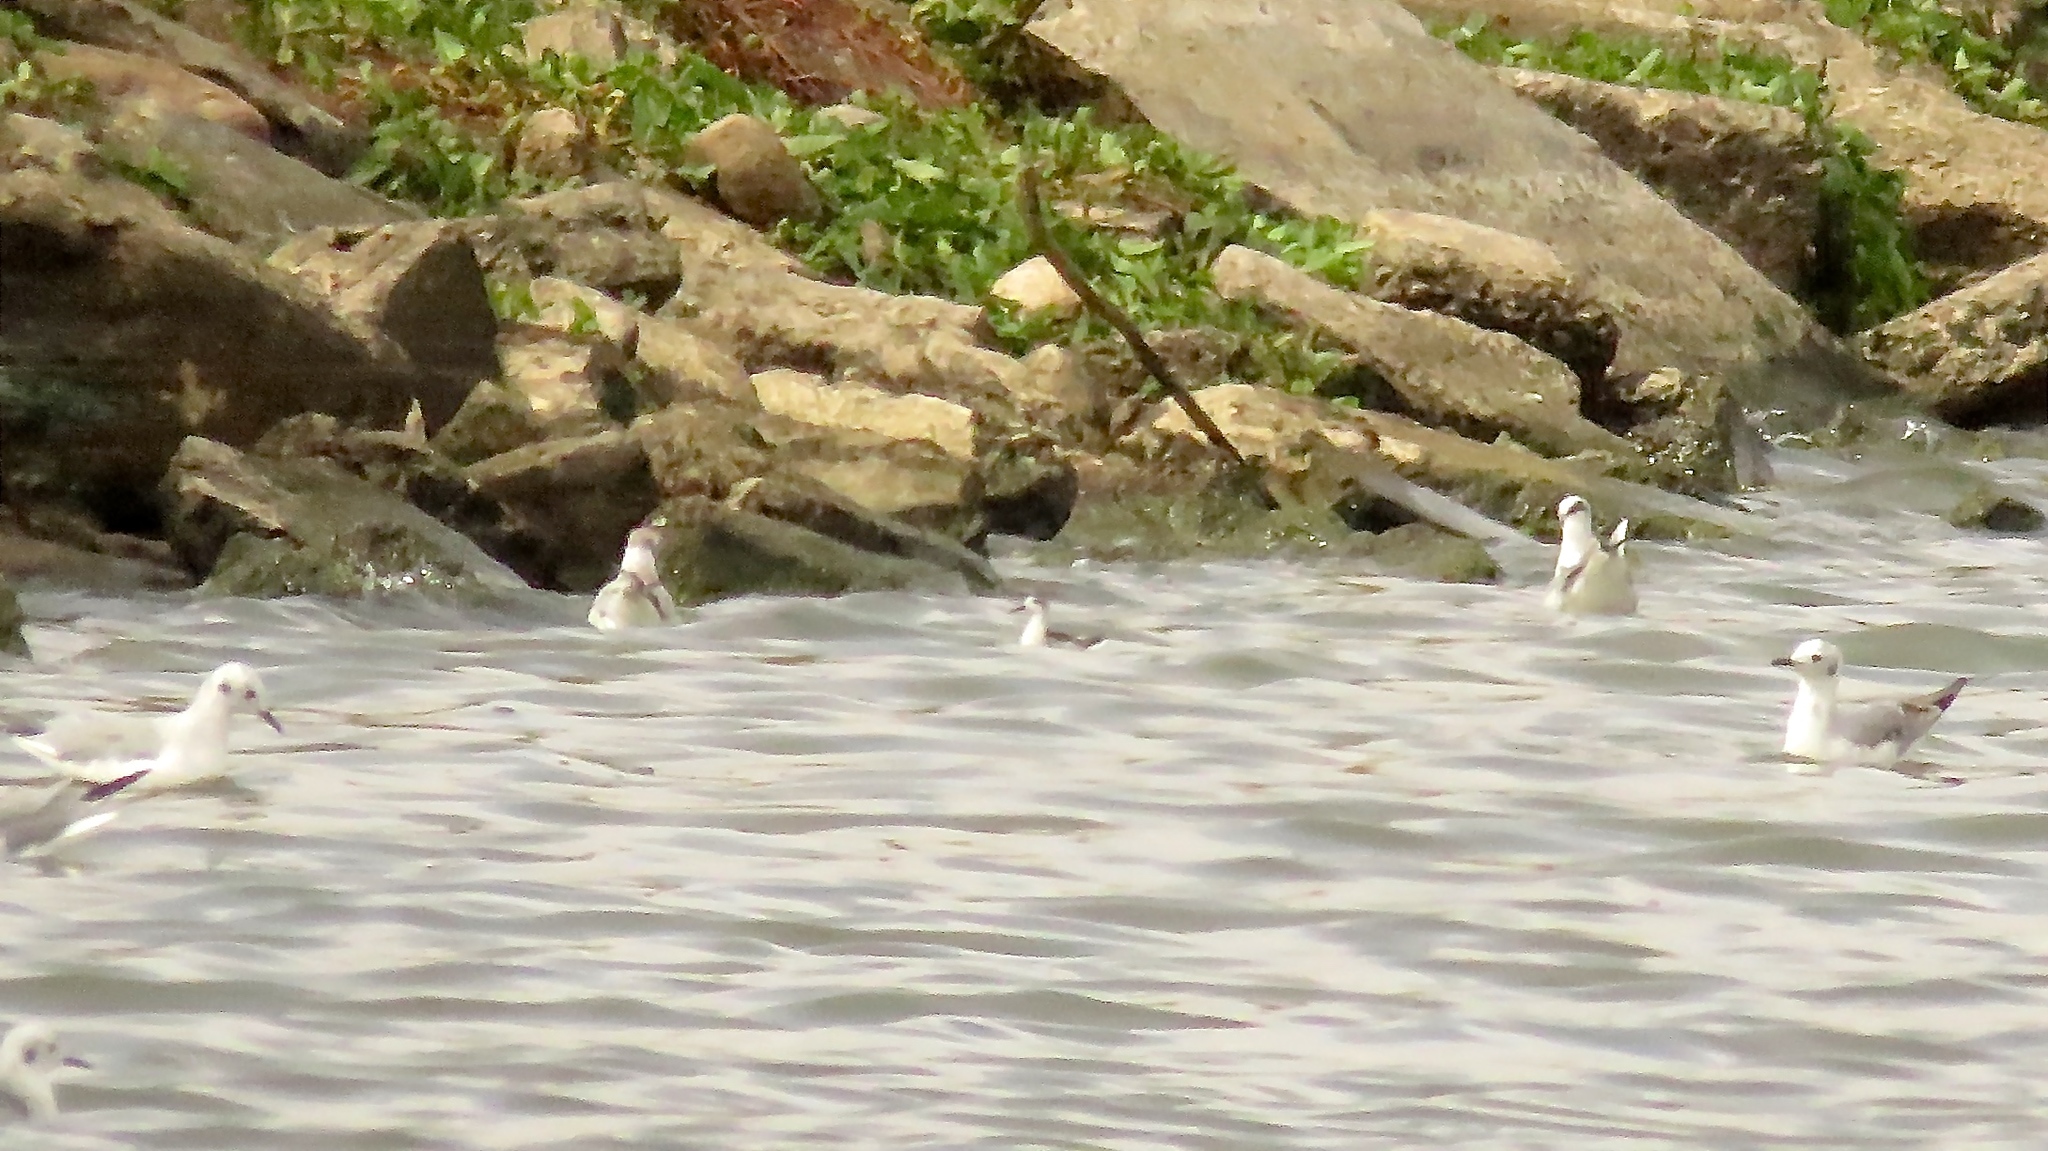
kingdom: Animalia
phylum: Chordata
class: Aves
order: Charadriiformes
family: Scolopacidae
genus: Phalaropus
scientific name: Phalaropus lobatus
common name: Red-necked phalarope
